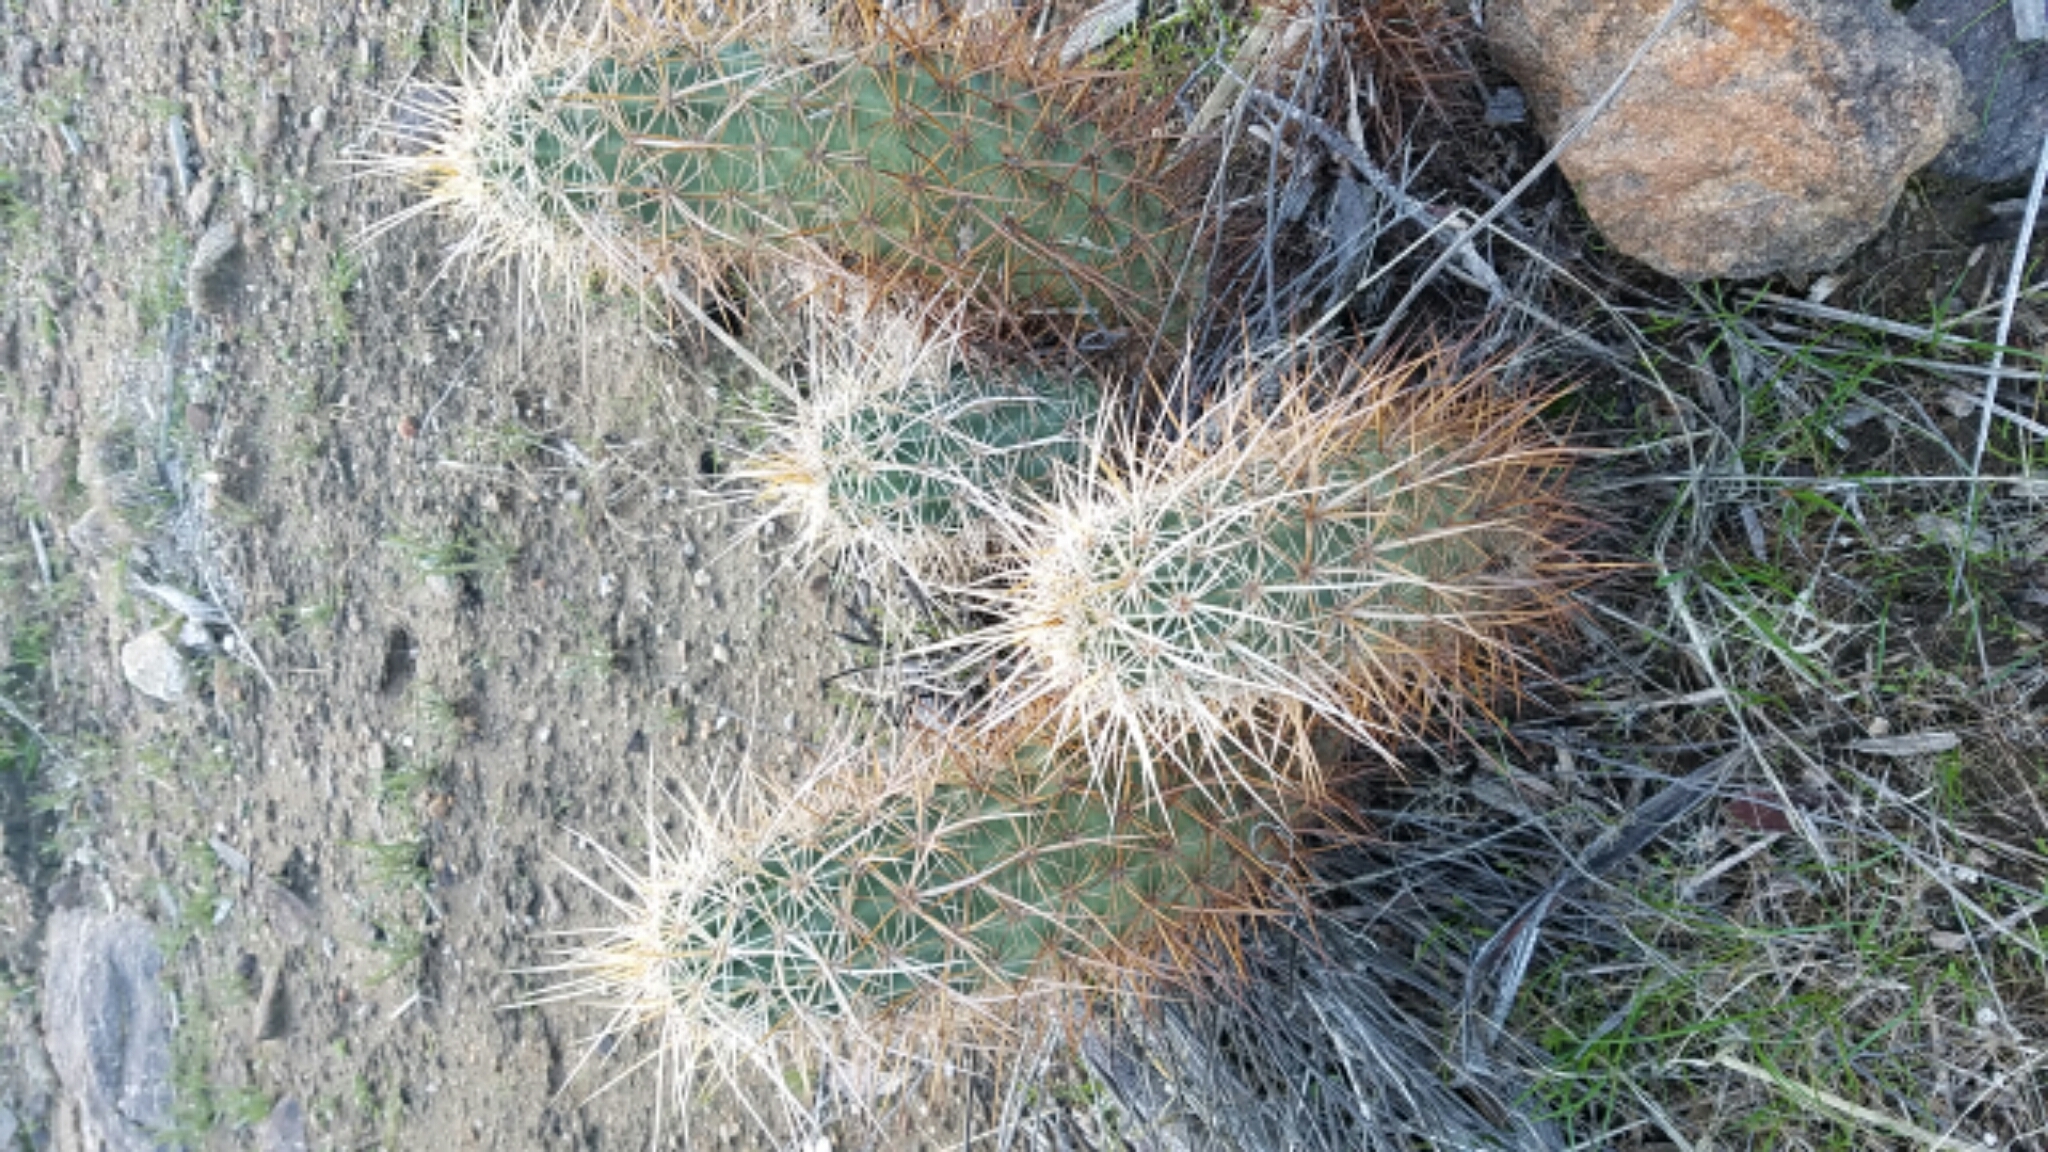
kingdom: Plantae
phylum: Tracheophyta
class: Magnoliopsida
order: Caryophyllales
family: Cactaceae
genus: Echinocereus
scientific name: Echinocereus engelmannii
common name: Engelmann's hedgehog cactus
